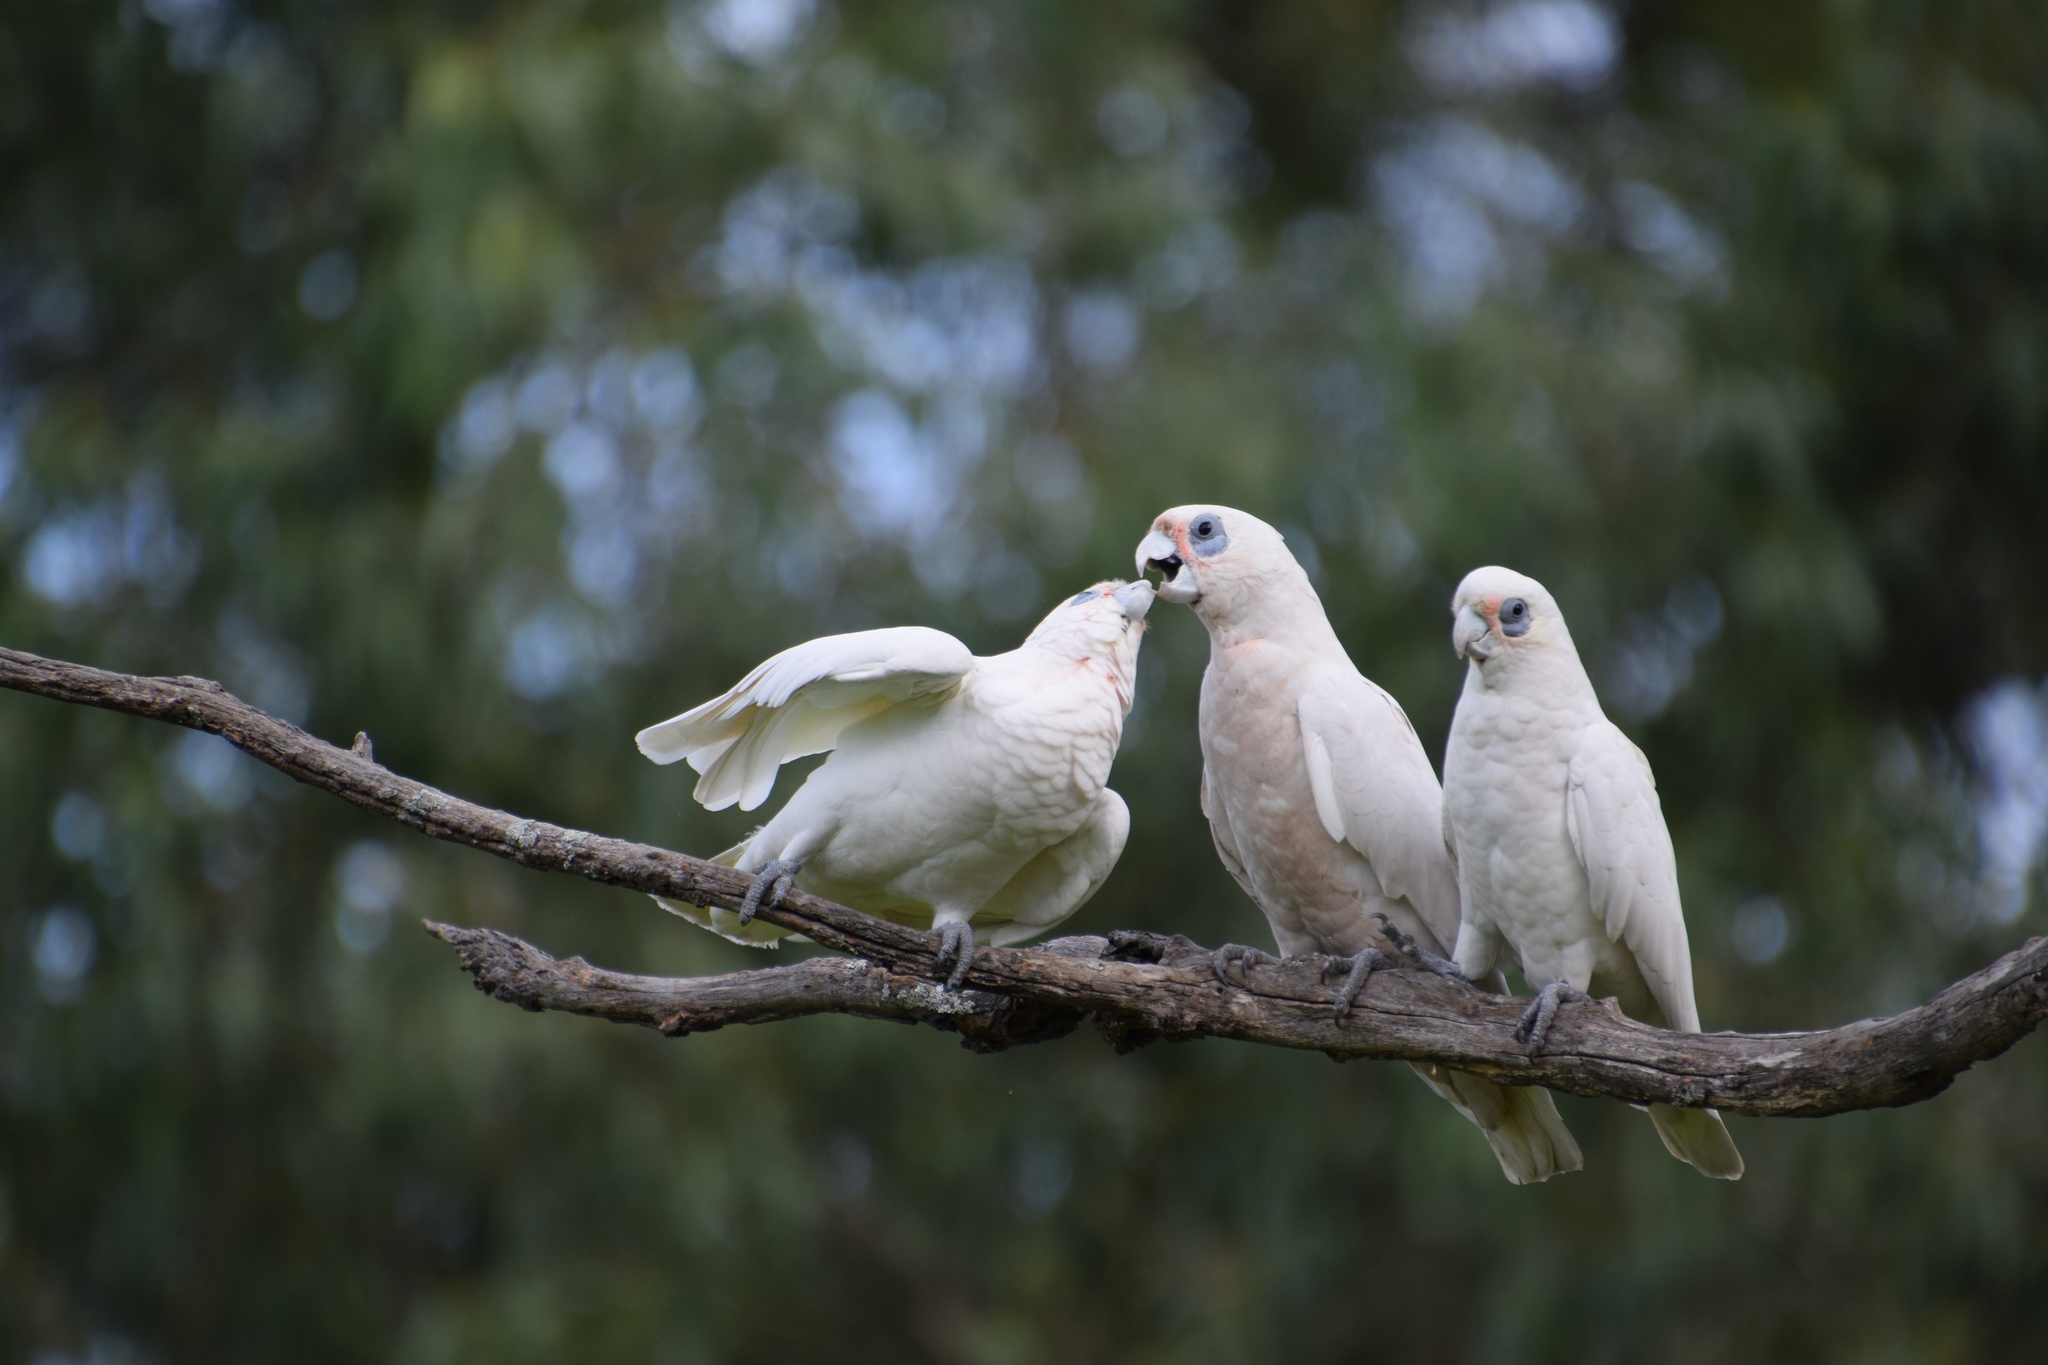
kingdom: Animalia
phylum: Chordata
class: Aves
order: Psittaciformes
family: Psittacidae
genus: Cacatua
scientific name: Cacatua sanguinea
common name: Little corella
